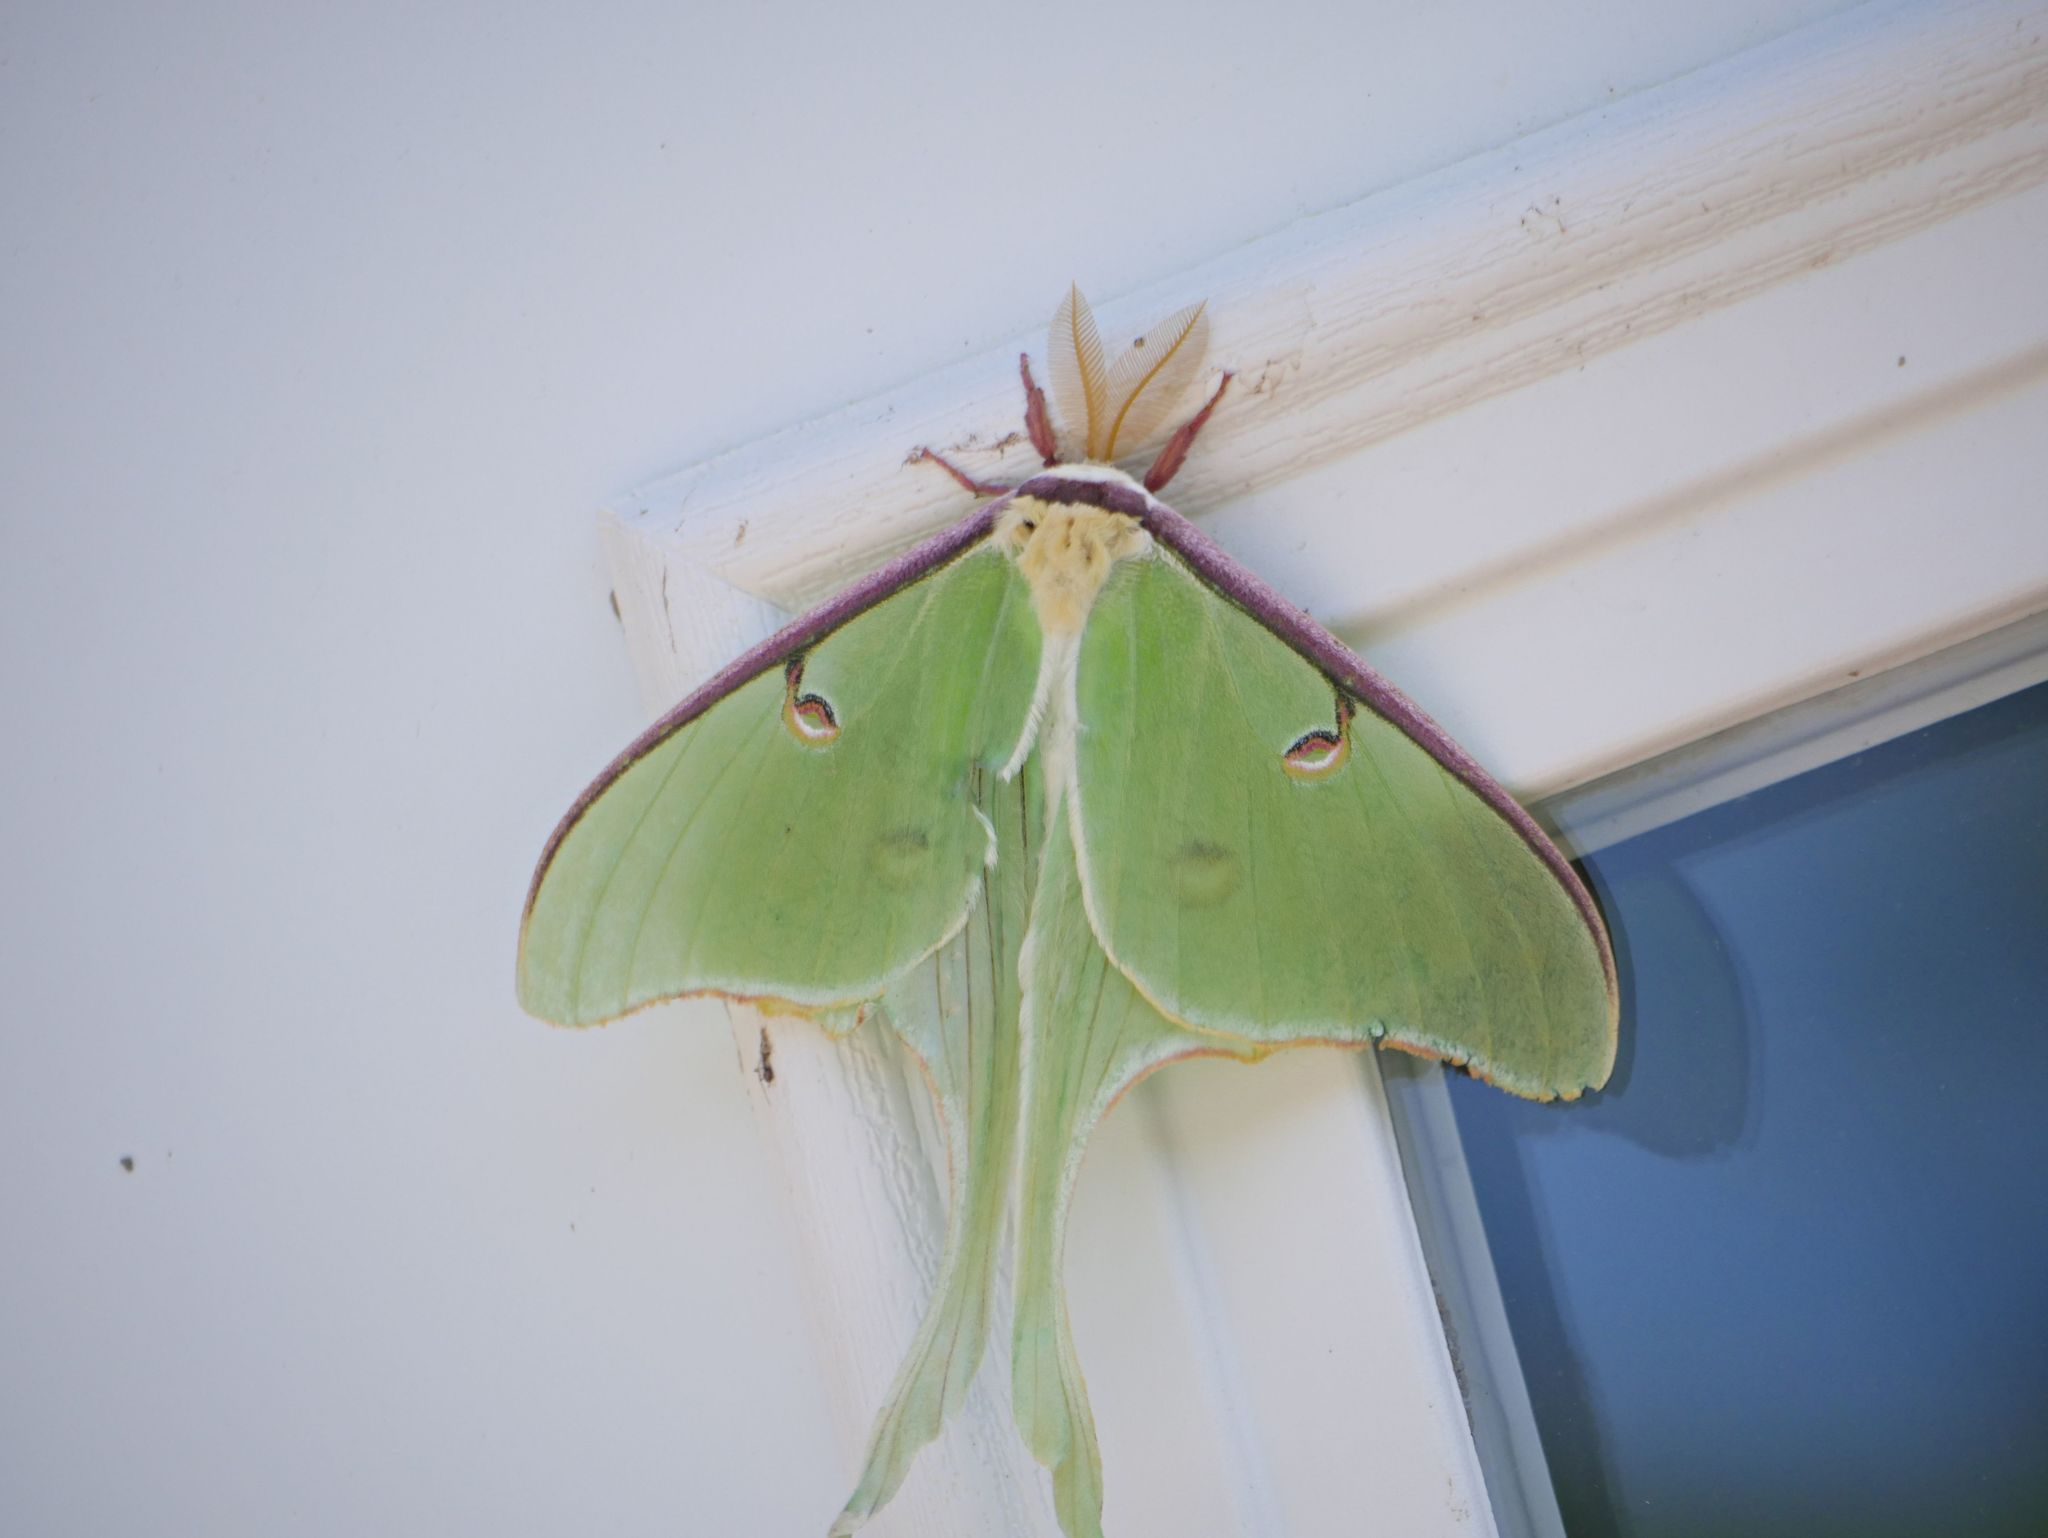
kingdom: Animalia
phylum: Arthropoda
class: Insecta
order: Lepidoptera
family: Saturniidae
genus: Actias
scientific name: Actias luna
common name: Luna moth
